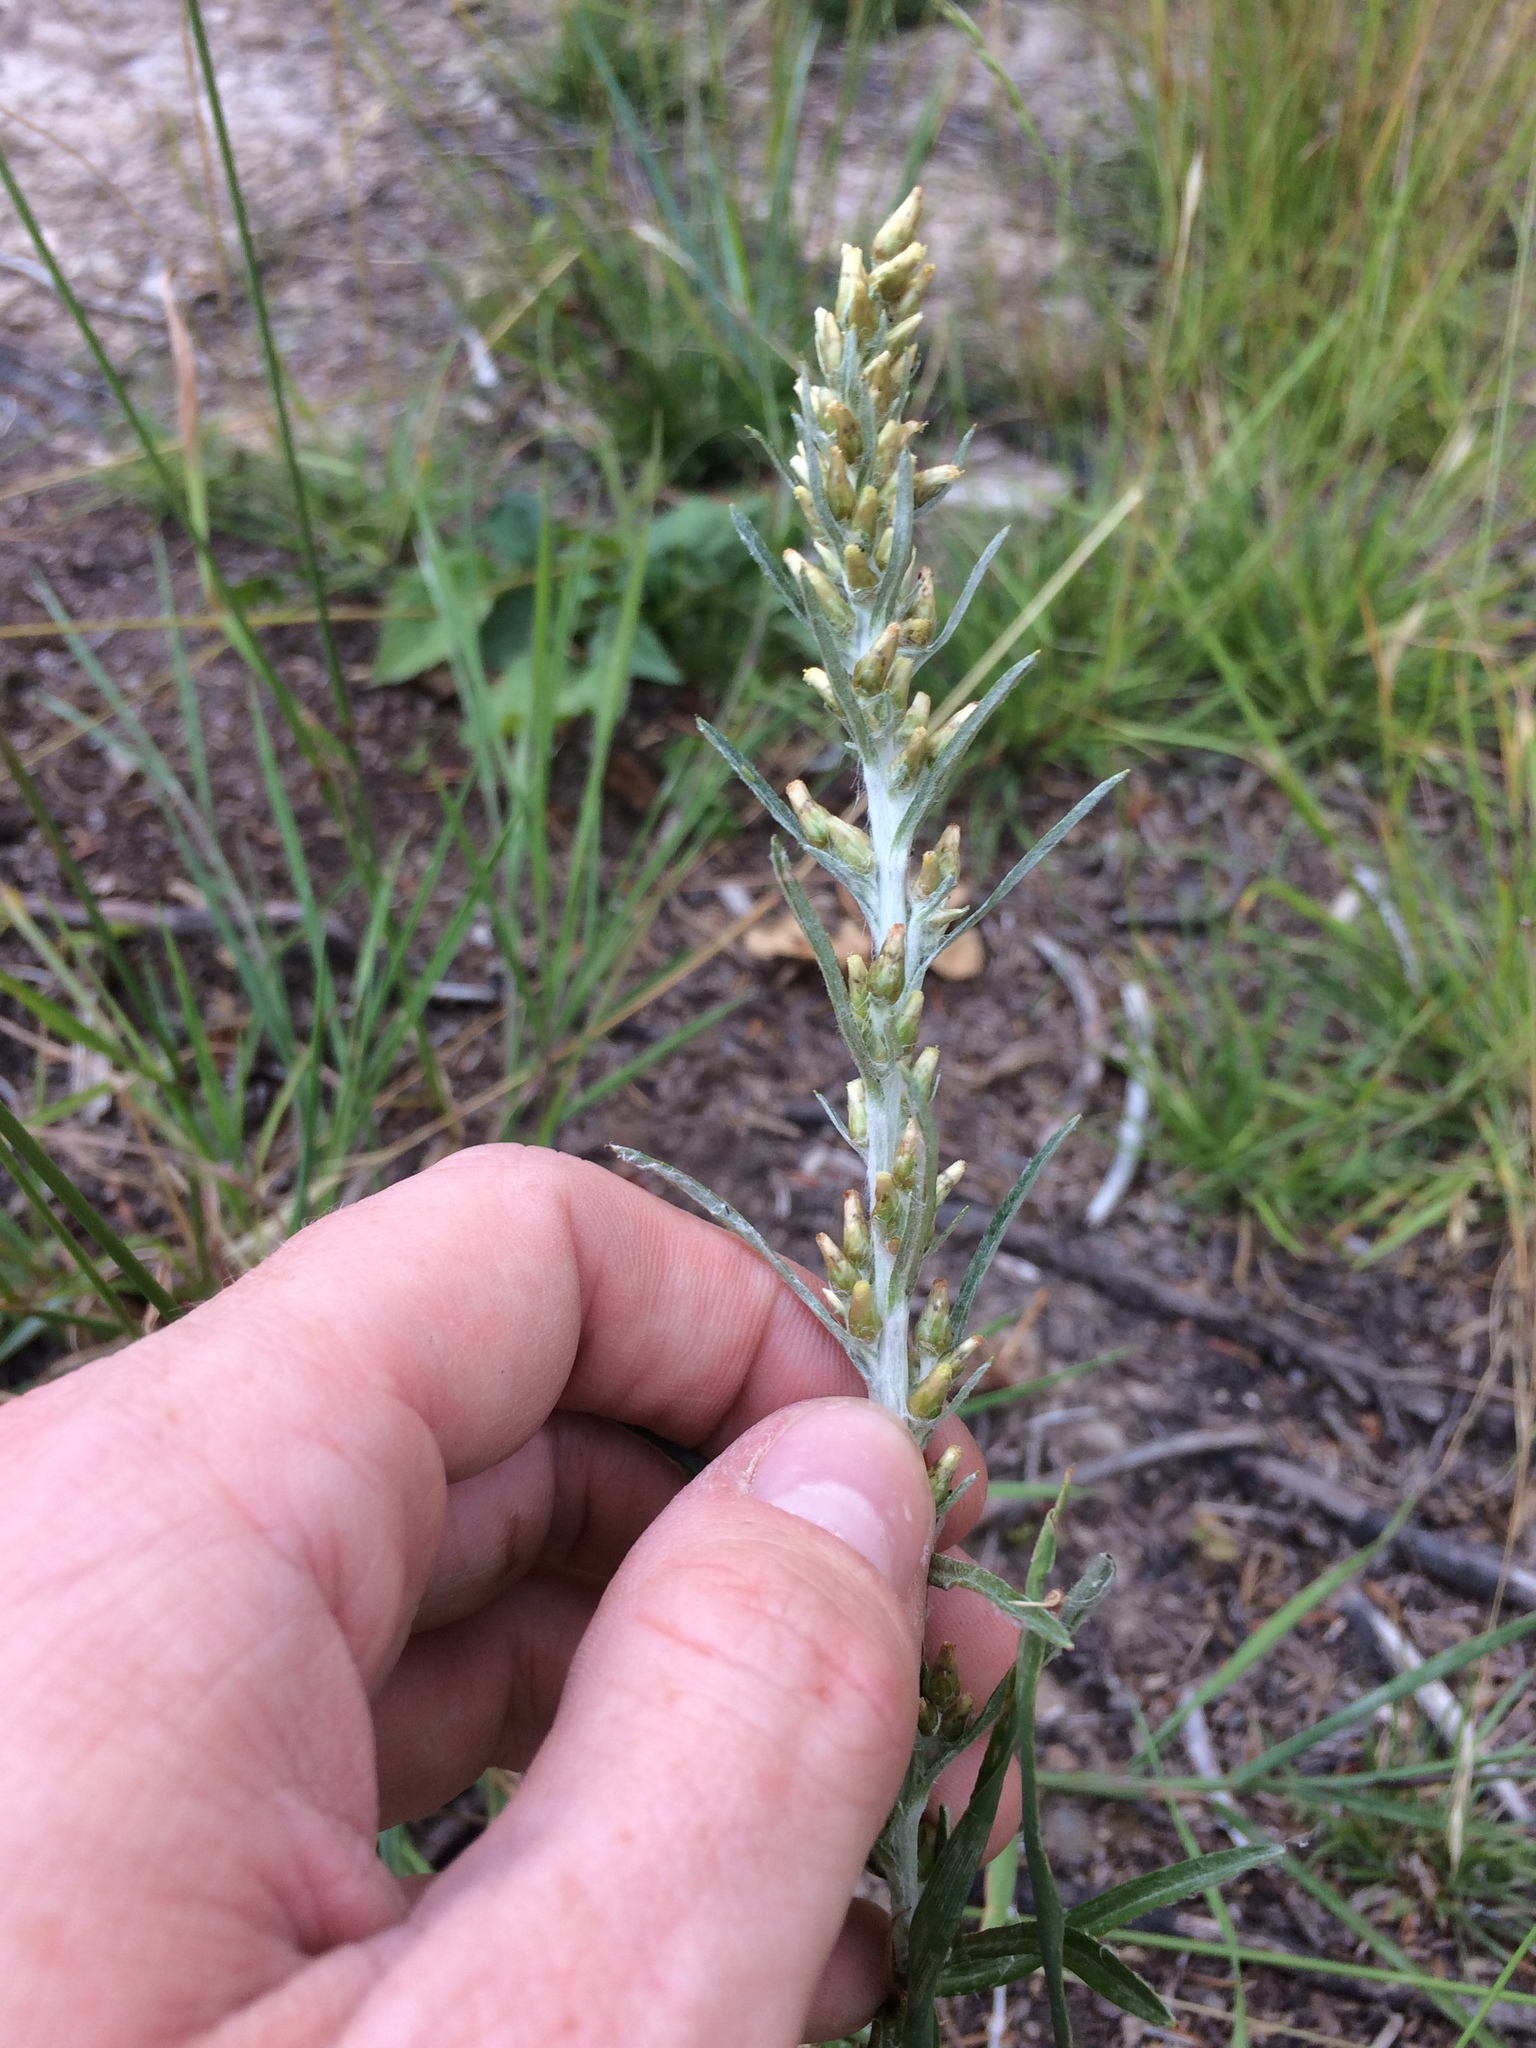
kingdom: Plantae
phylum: Tracheophyta
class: Magnoliopsida
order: Asterales
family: Asteraceae
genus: Omalotheca
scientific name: Omalotheca sylvatica
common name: Heath cudweed
